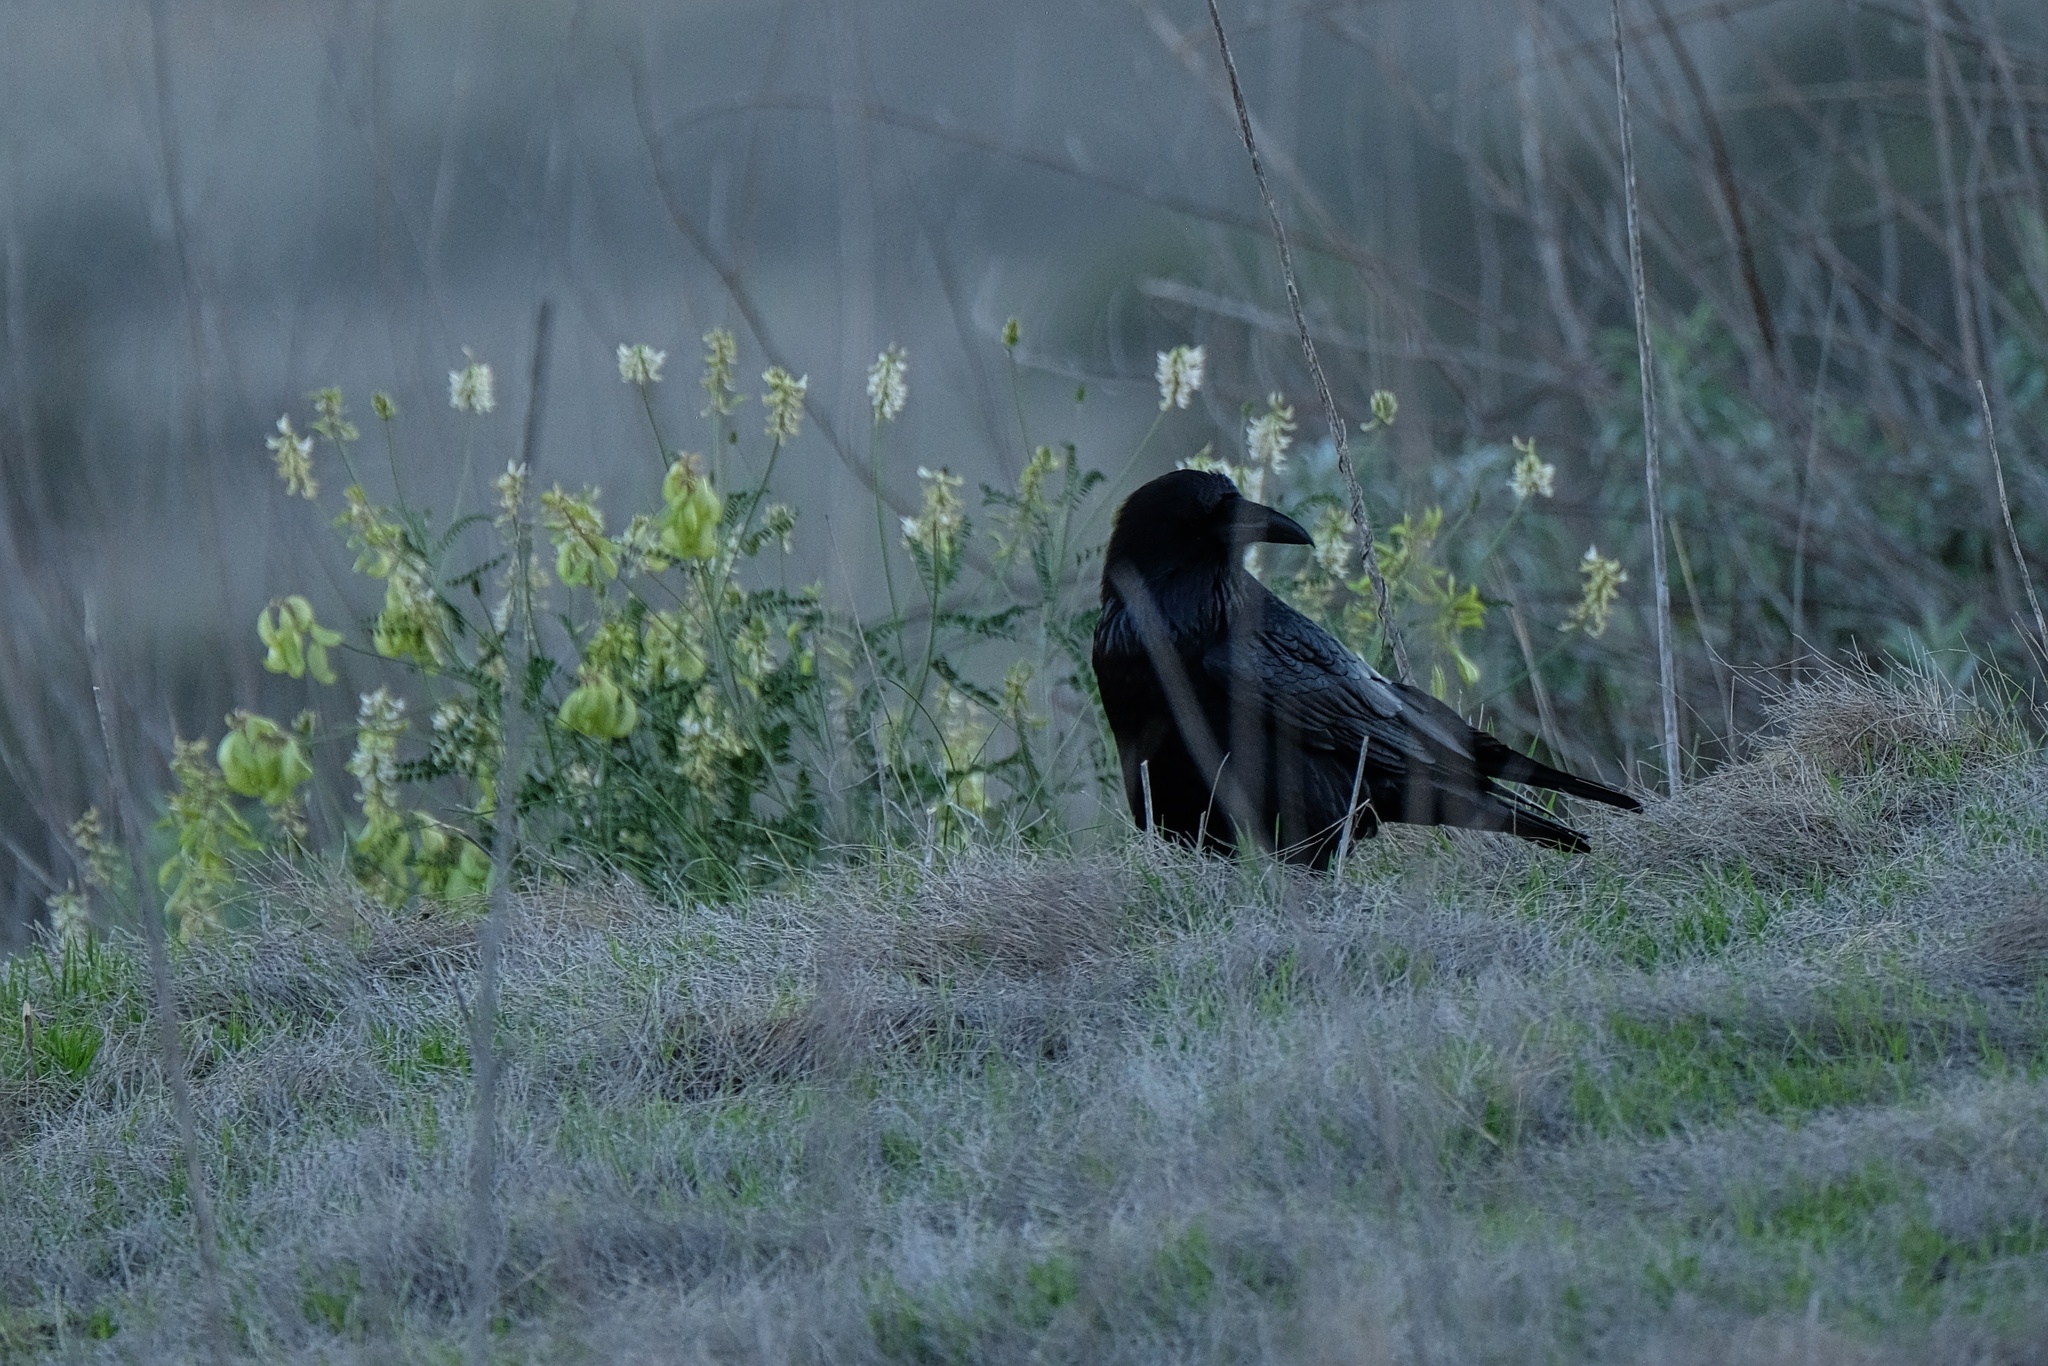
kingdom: Animalia
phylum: Chordata
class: Aves
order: Passeriformes
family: Corvidae
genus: Corvus
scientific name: Corvus corax
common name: Common raven
